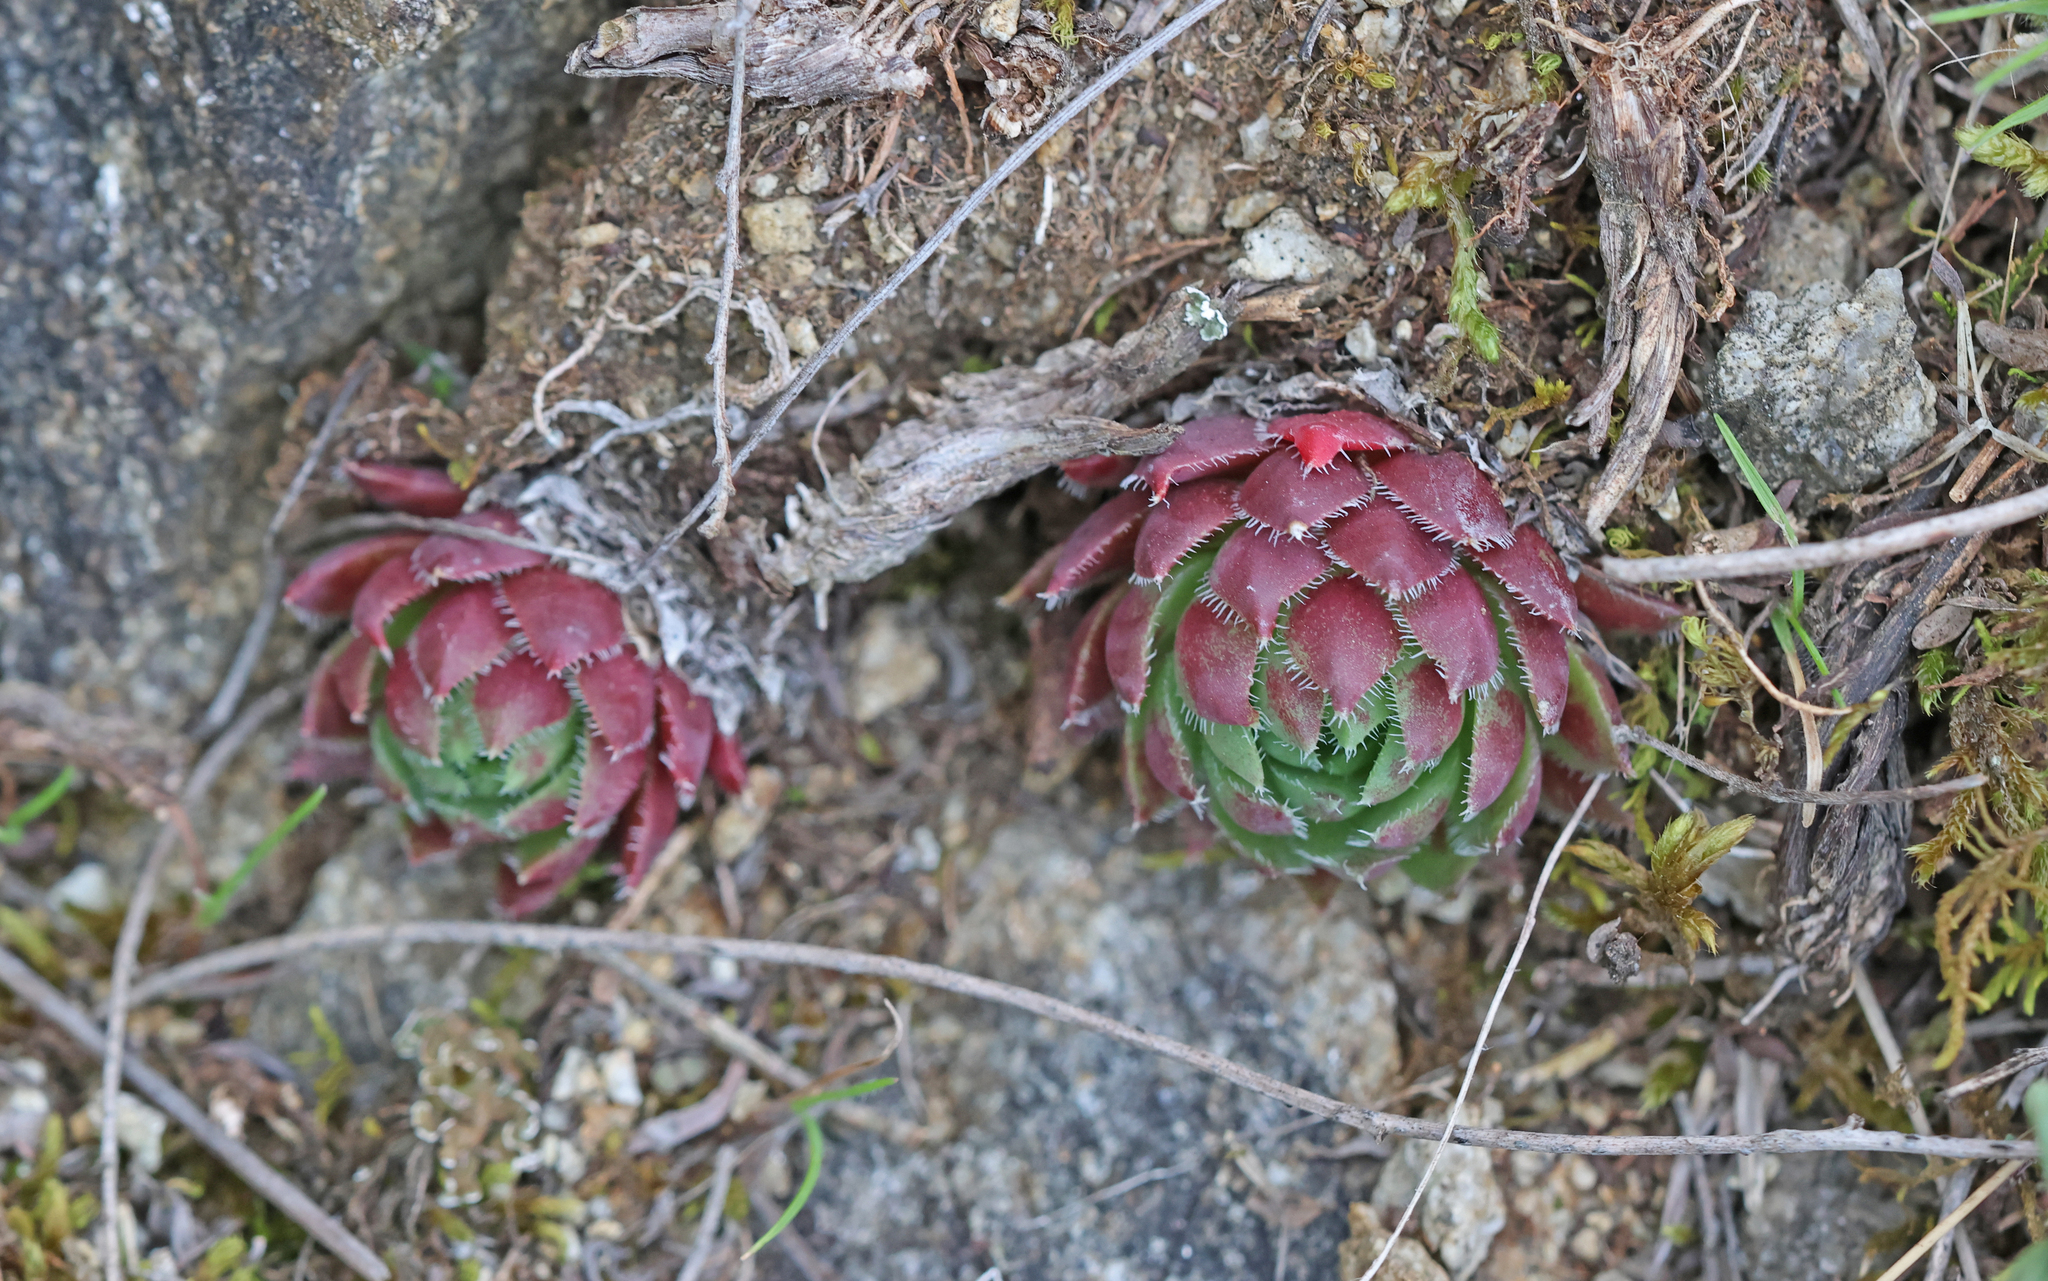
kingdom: Plantae
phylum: Tracheophyta
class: Magnoliopsida
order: Saxifragales
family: Crassulaceae
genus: Sempervivum
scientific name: Sempervivum globiferum
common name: Rolling hen-and-chicks
